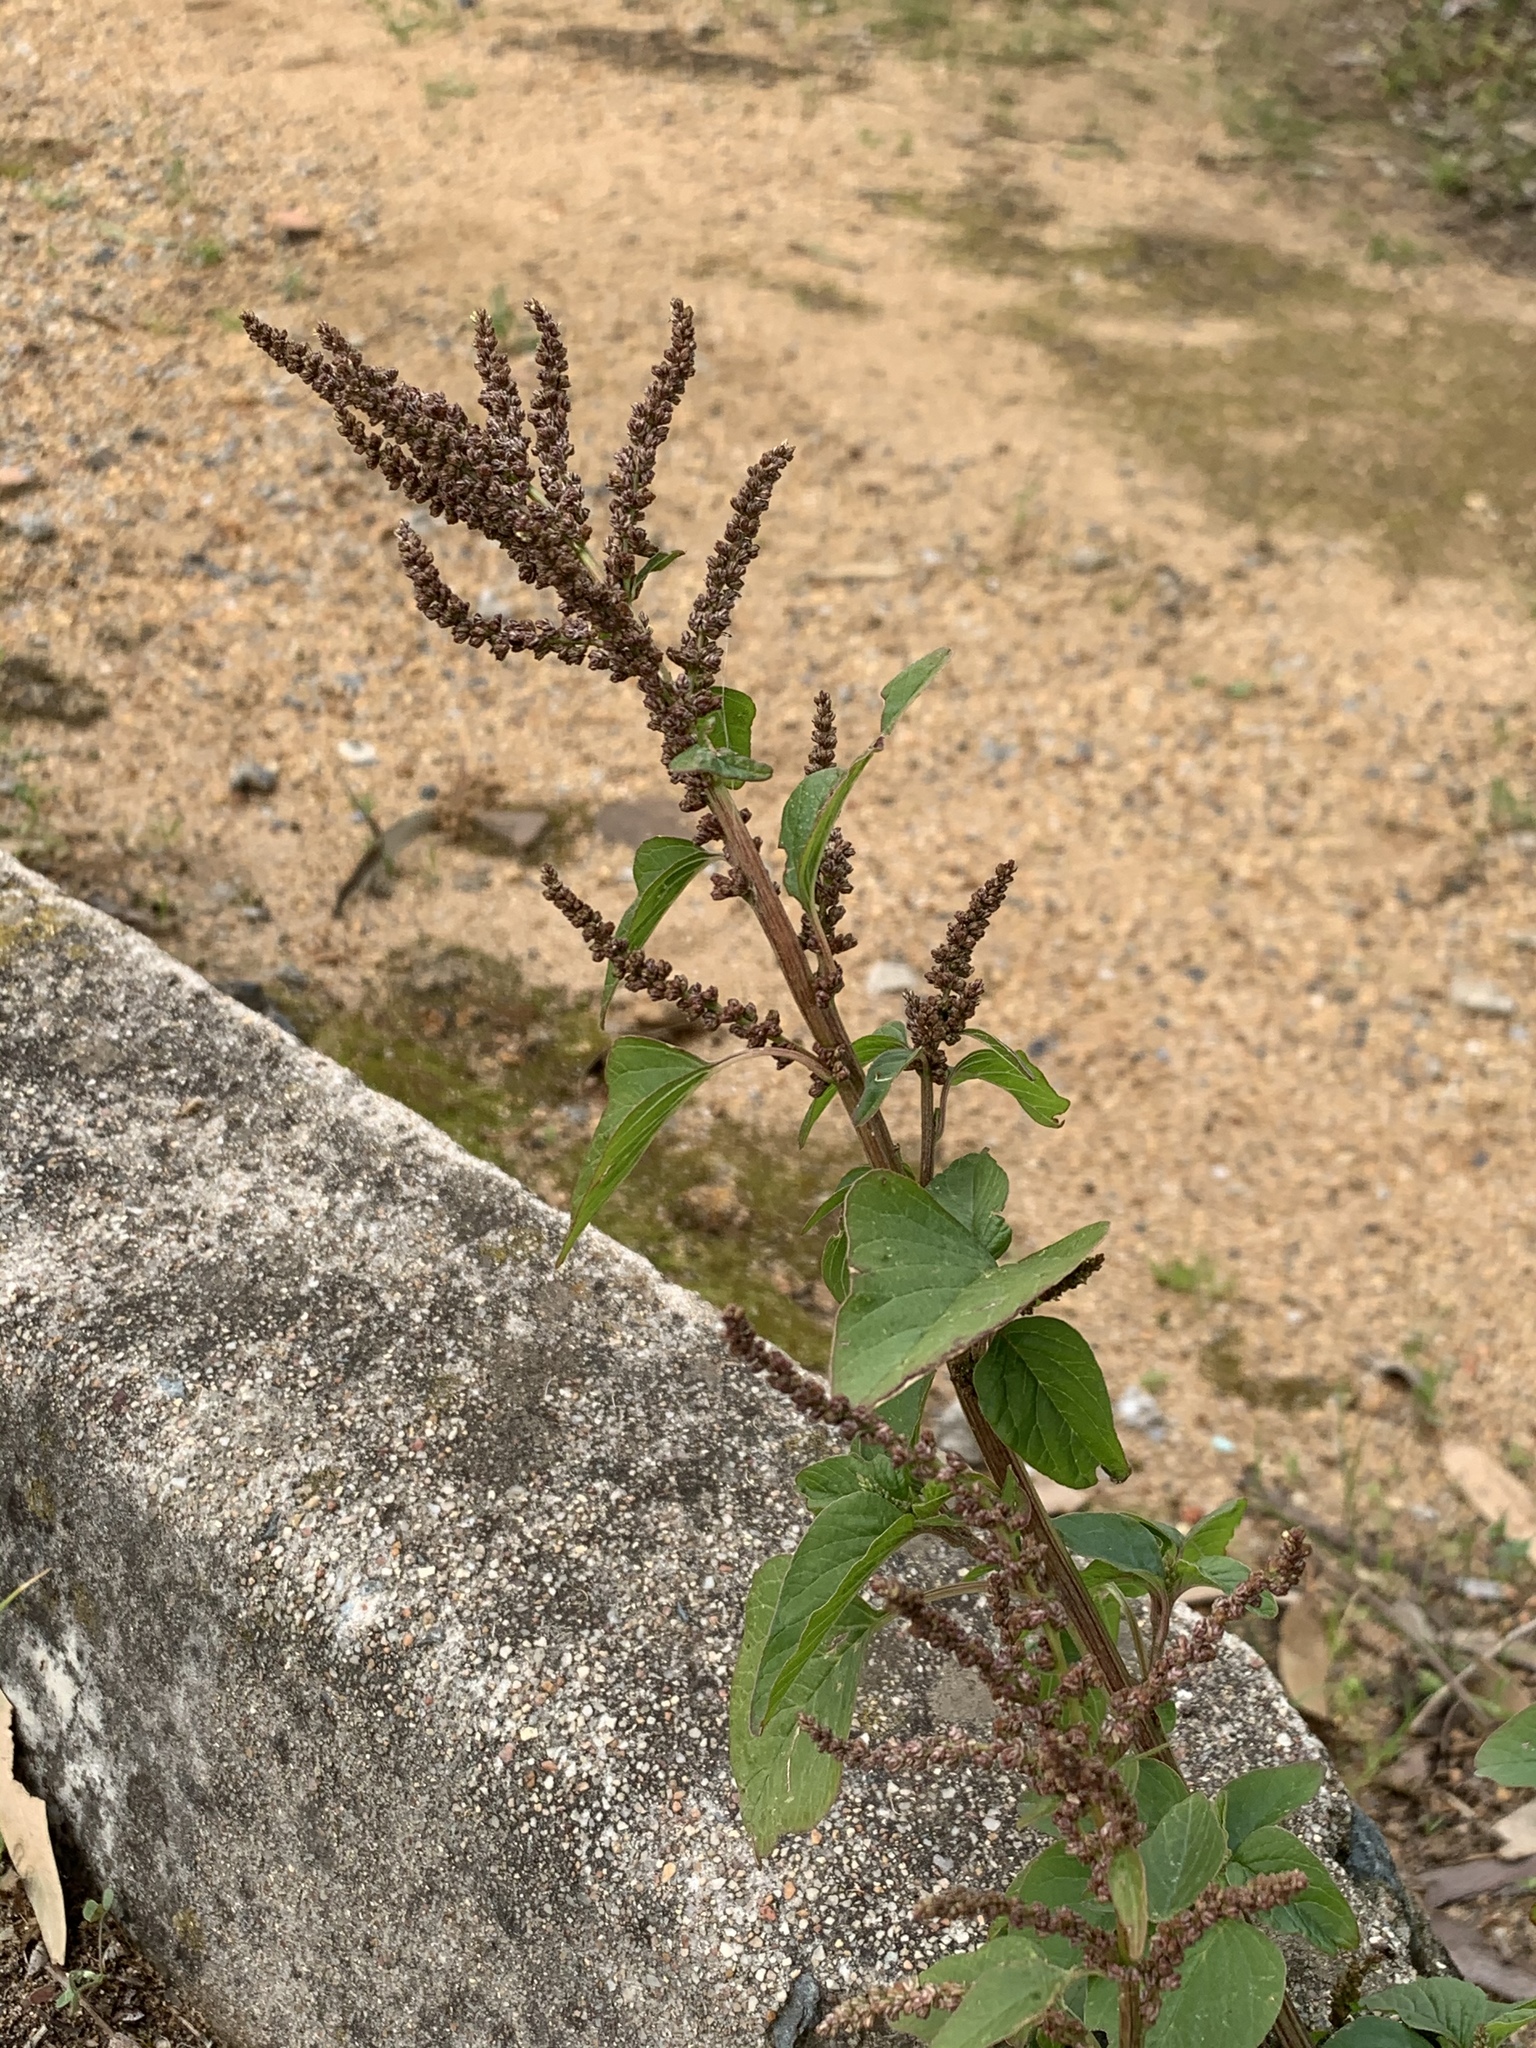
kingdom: Plantae
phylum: Tracheophyta
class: Magnoliopsida
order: Caryophyllales
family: Amaranthaceae
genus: Amaranthus
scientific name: Amaranthus viridis
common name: Slender amaranth
